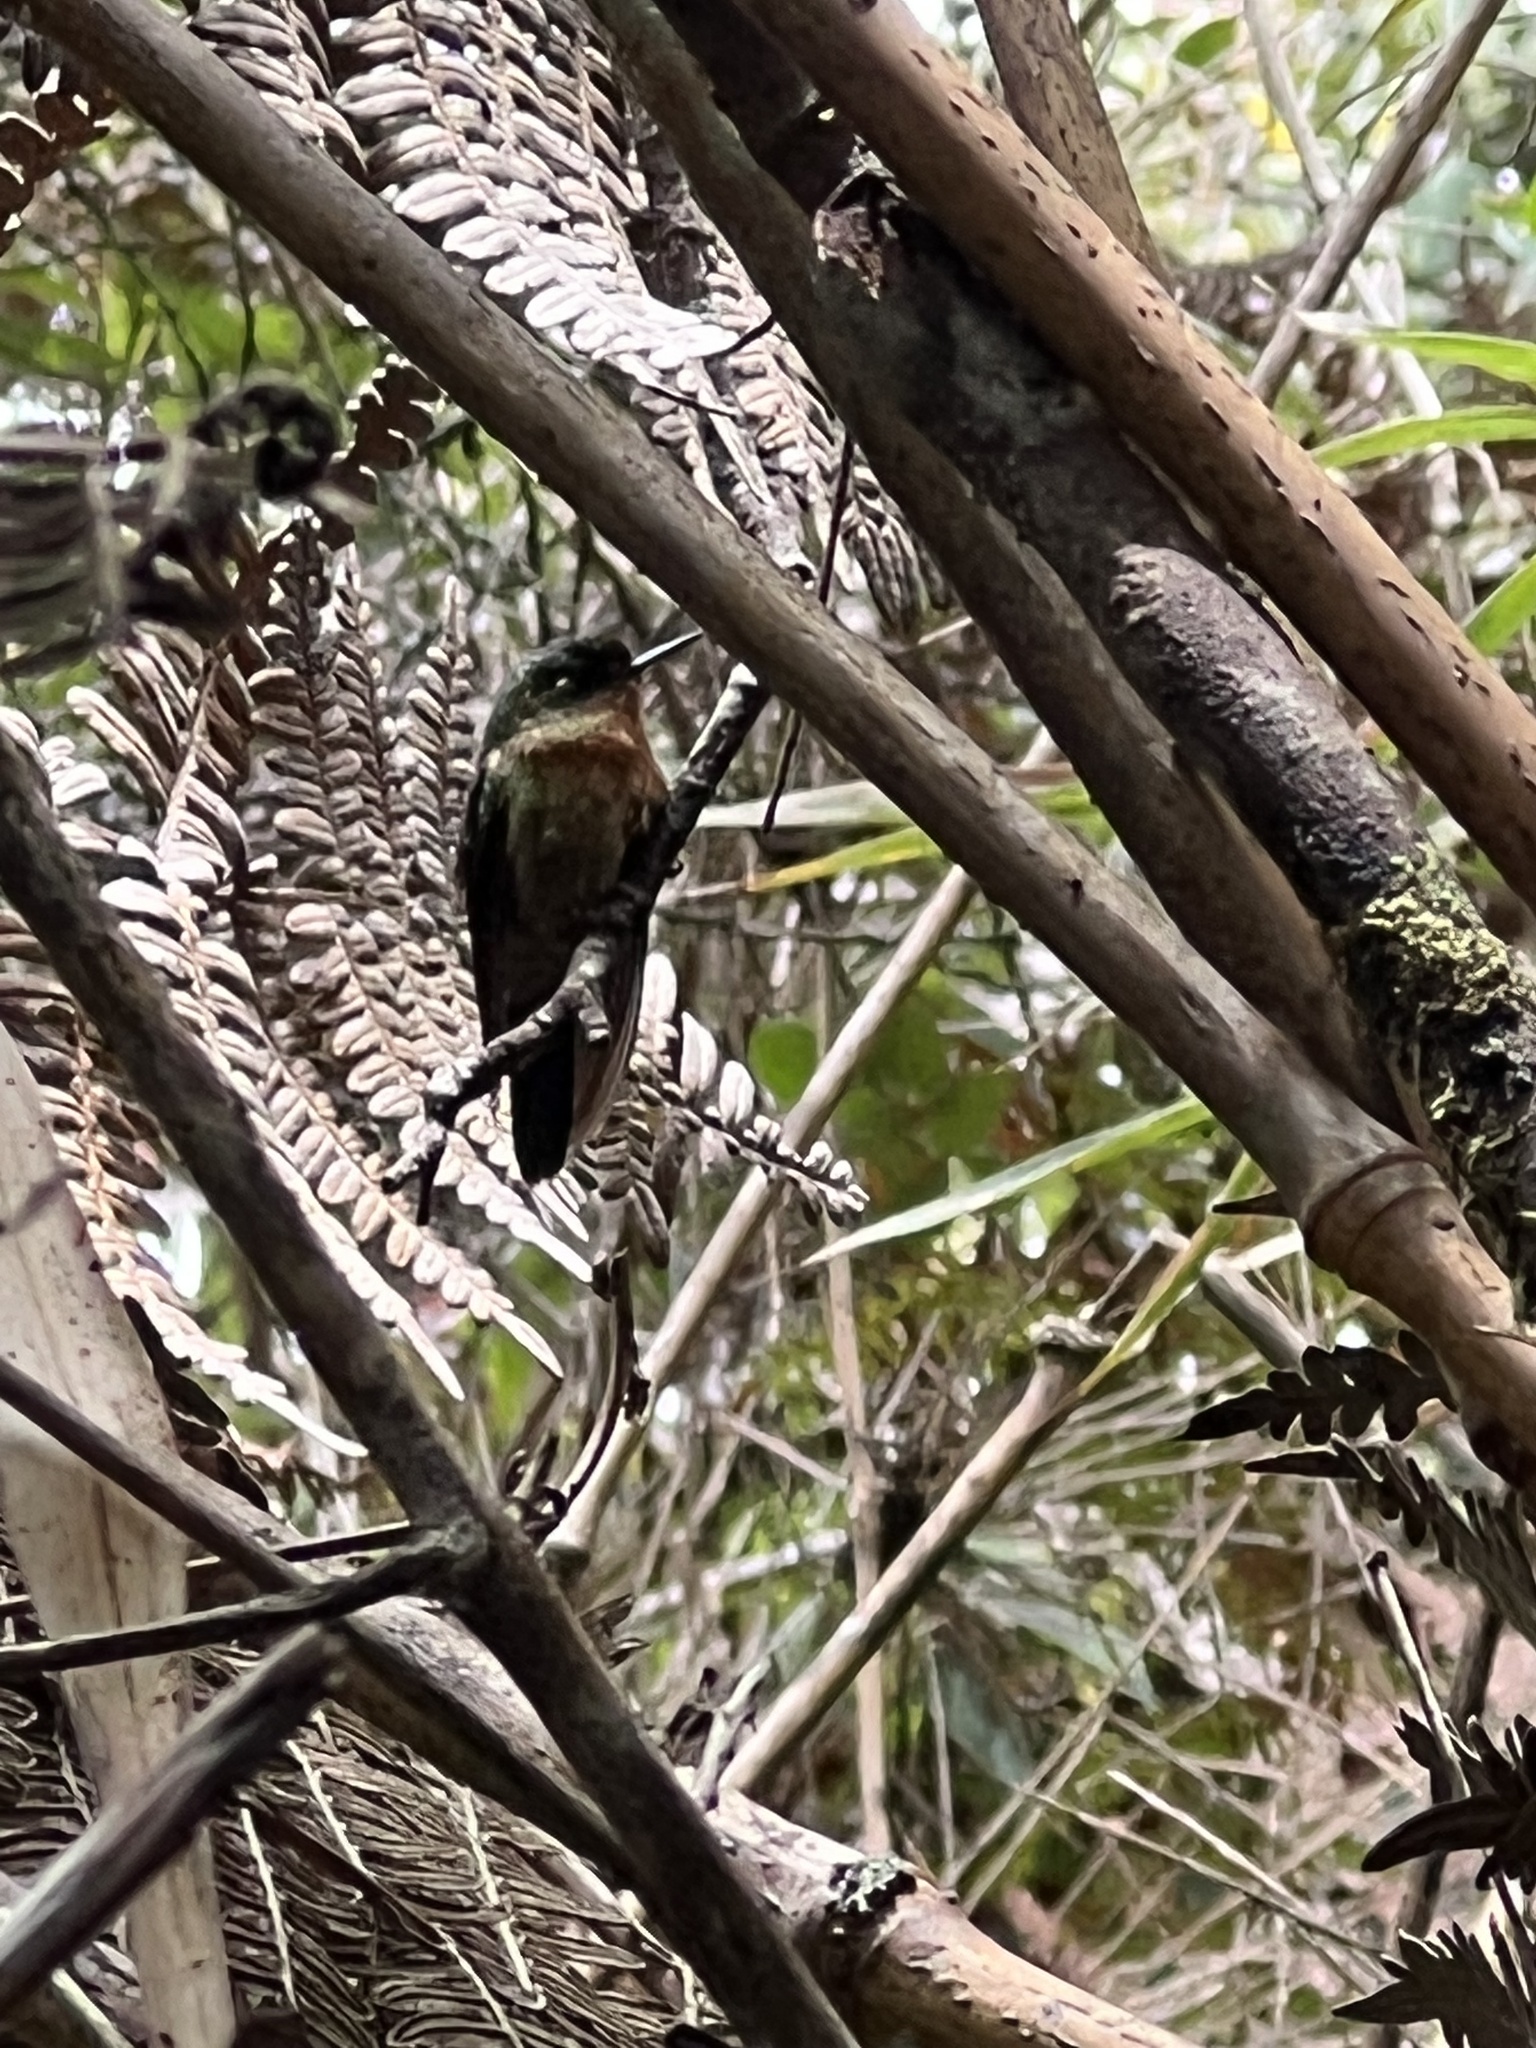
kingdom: Animalia
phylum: Chordata
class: Aves
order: Apodiformes
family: Trochilidae
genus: Metallura
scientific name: Metallura tyrianthina
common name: Tyrian metaltail
